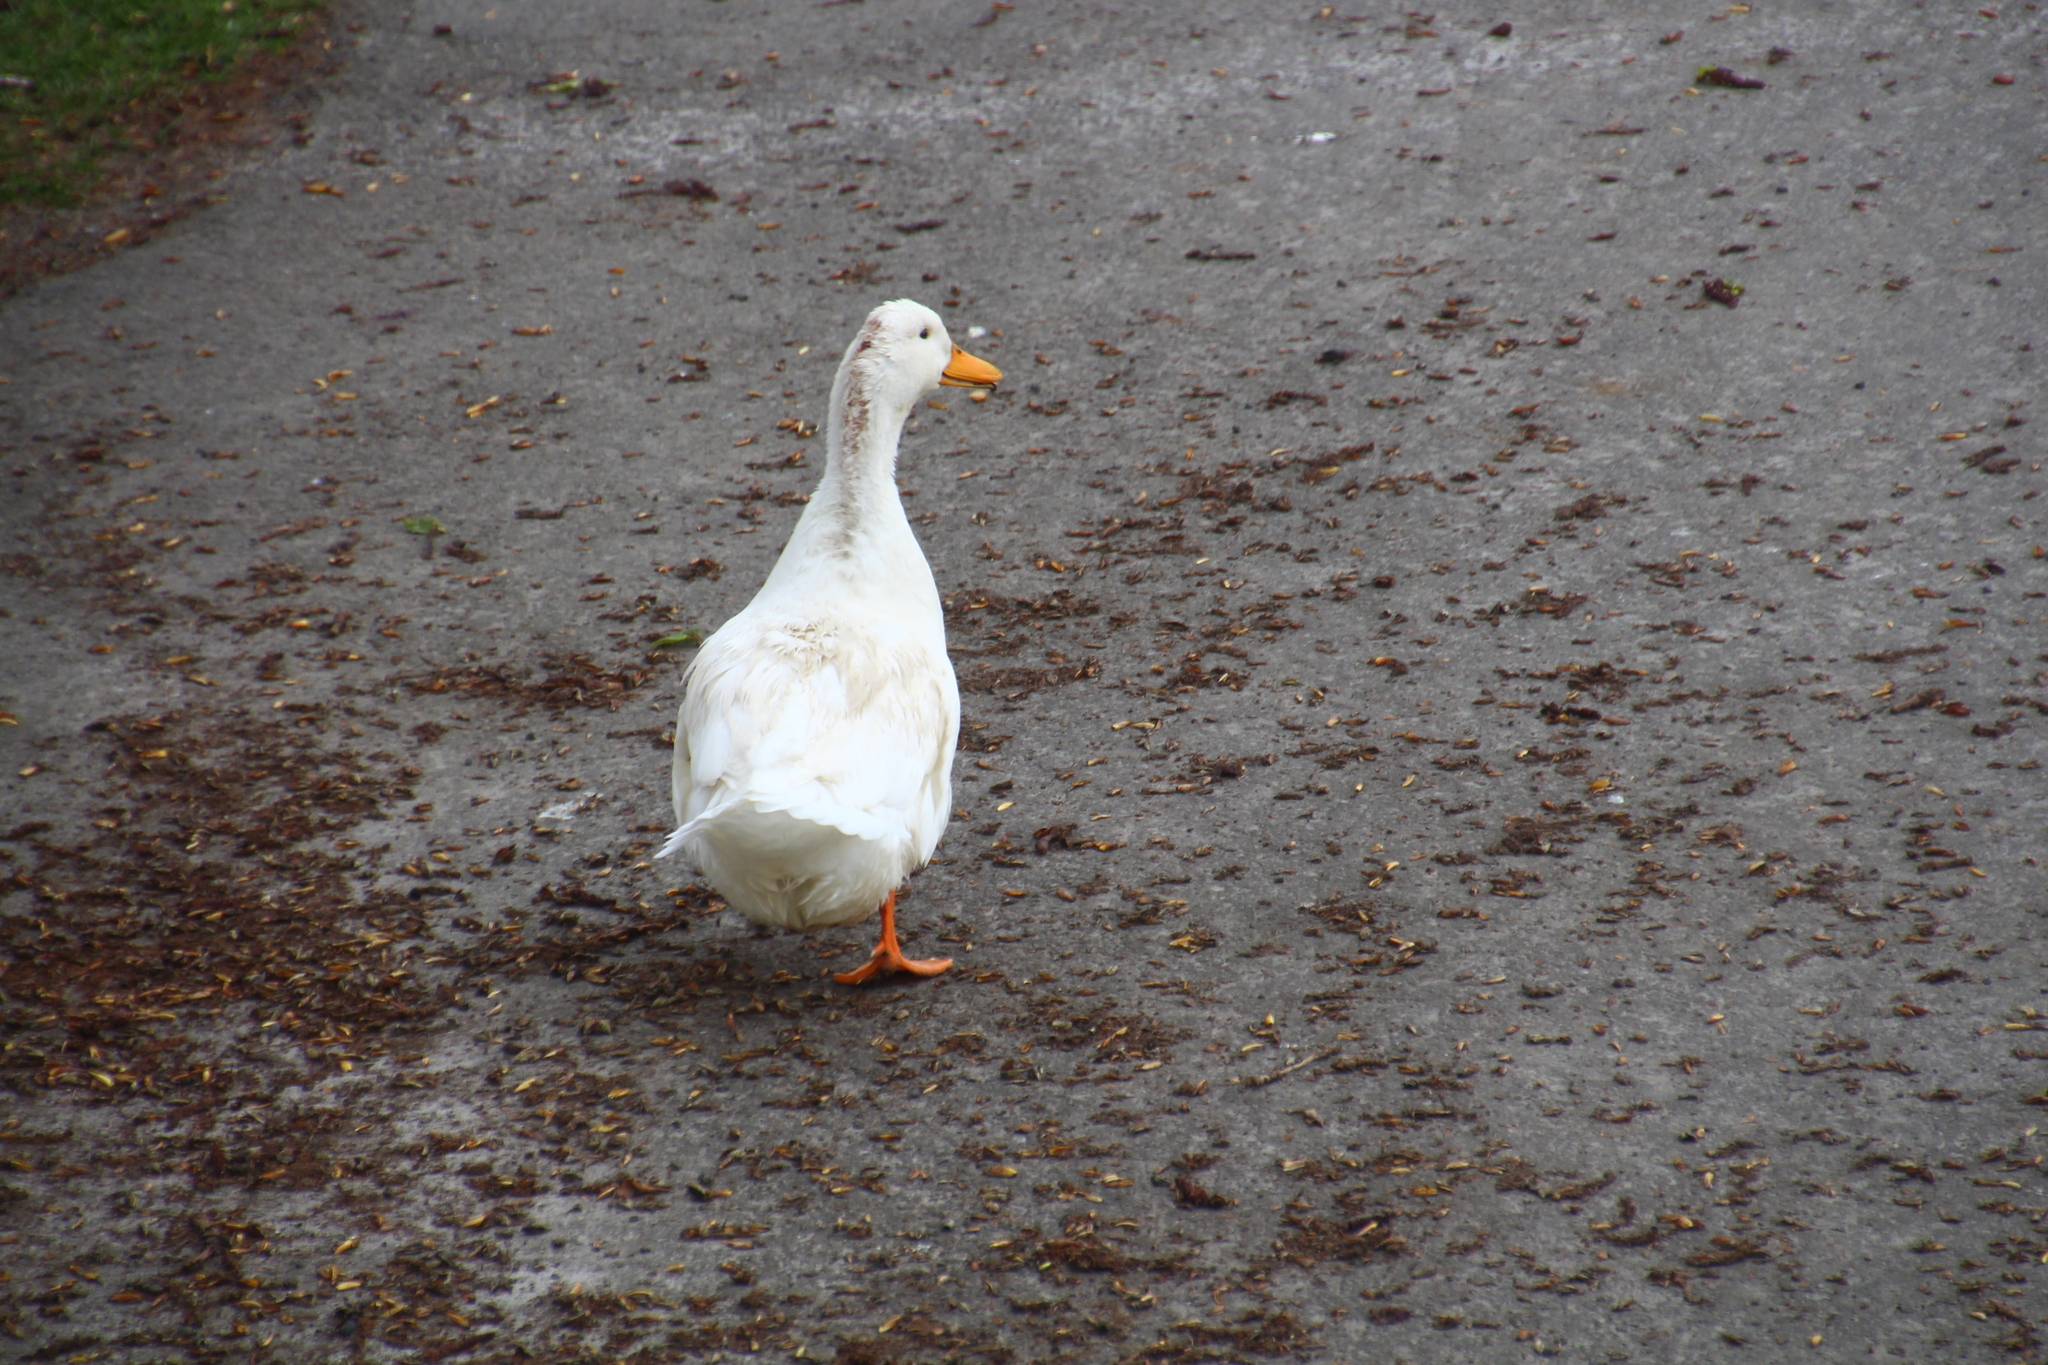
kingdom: Animalia
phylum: Chordata
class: Aves
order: Anseriformes
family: Anatidae
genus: Anas
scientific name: Anas platyrhynchos
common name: Mallard
